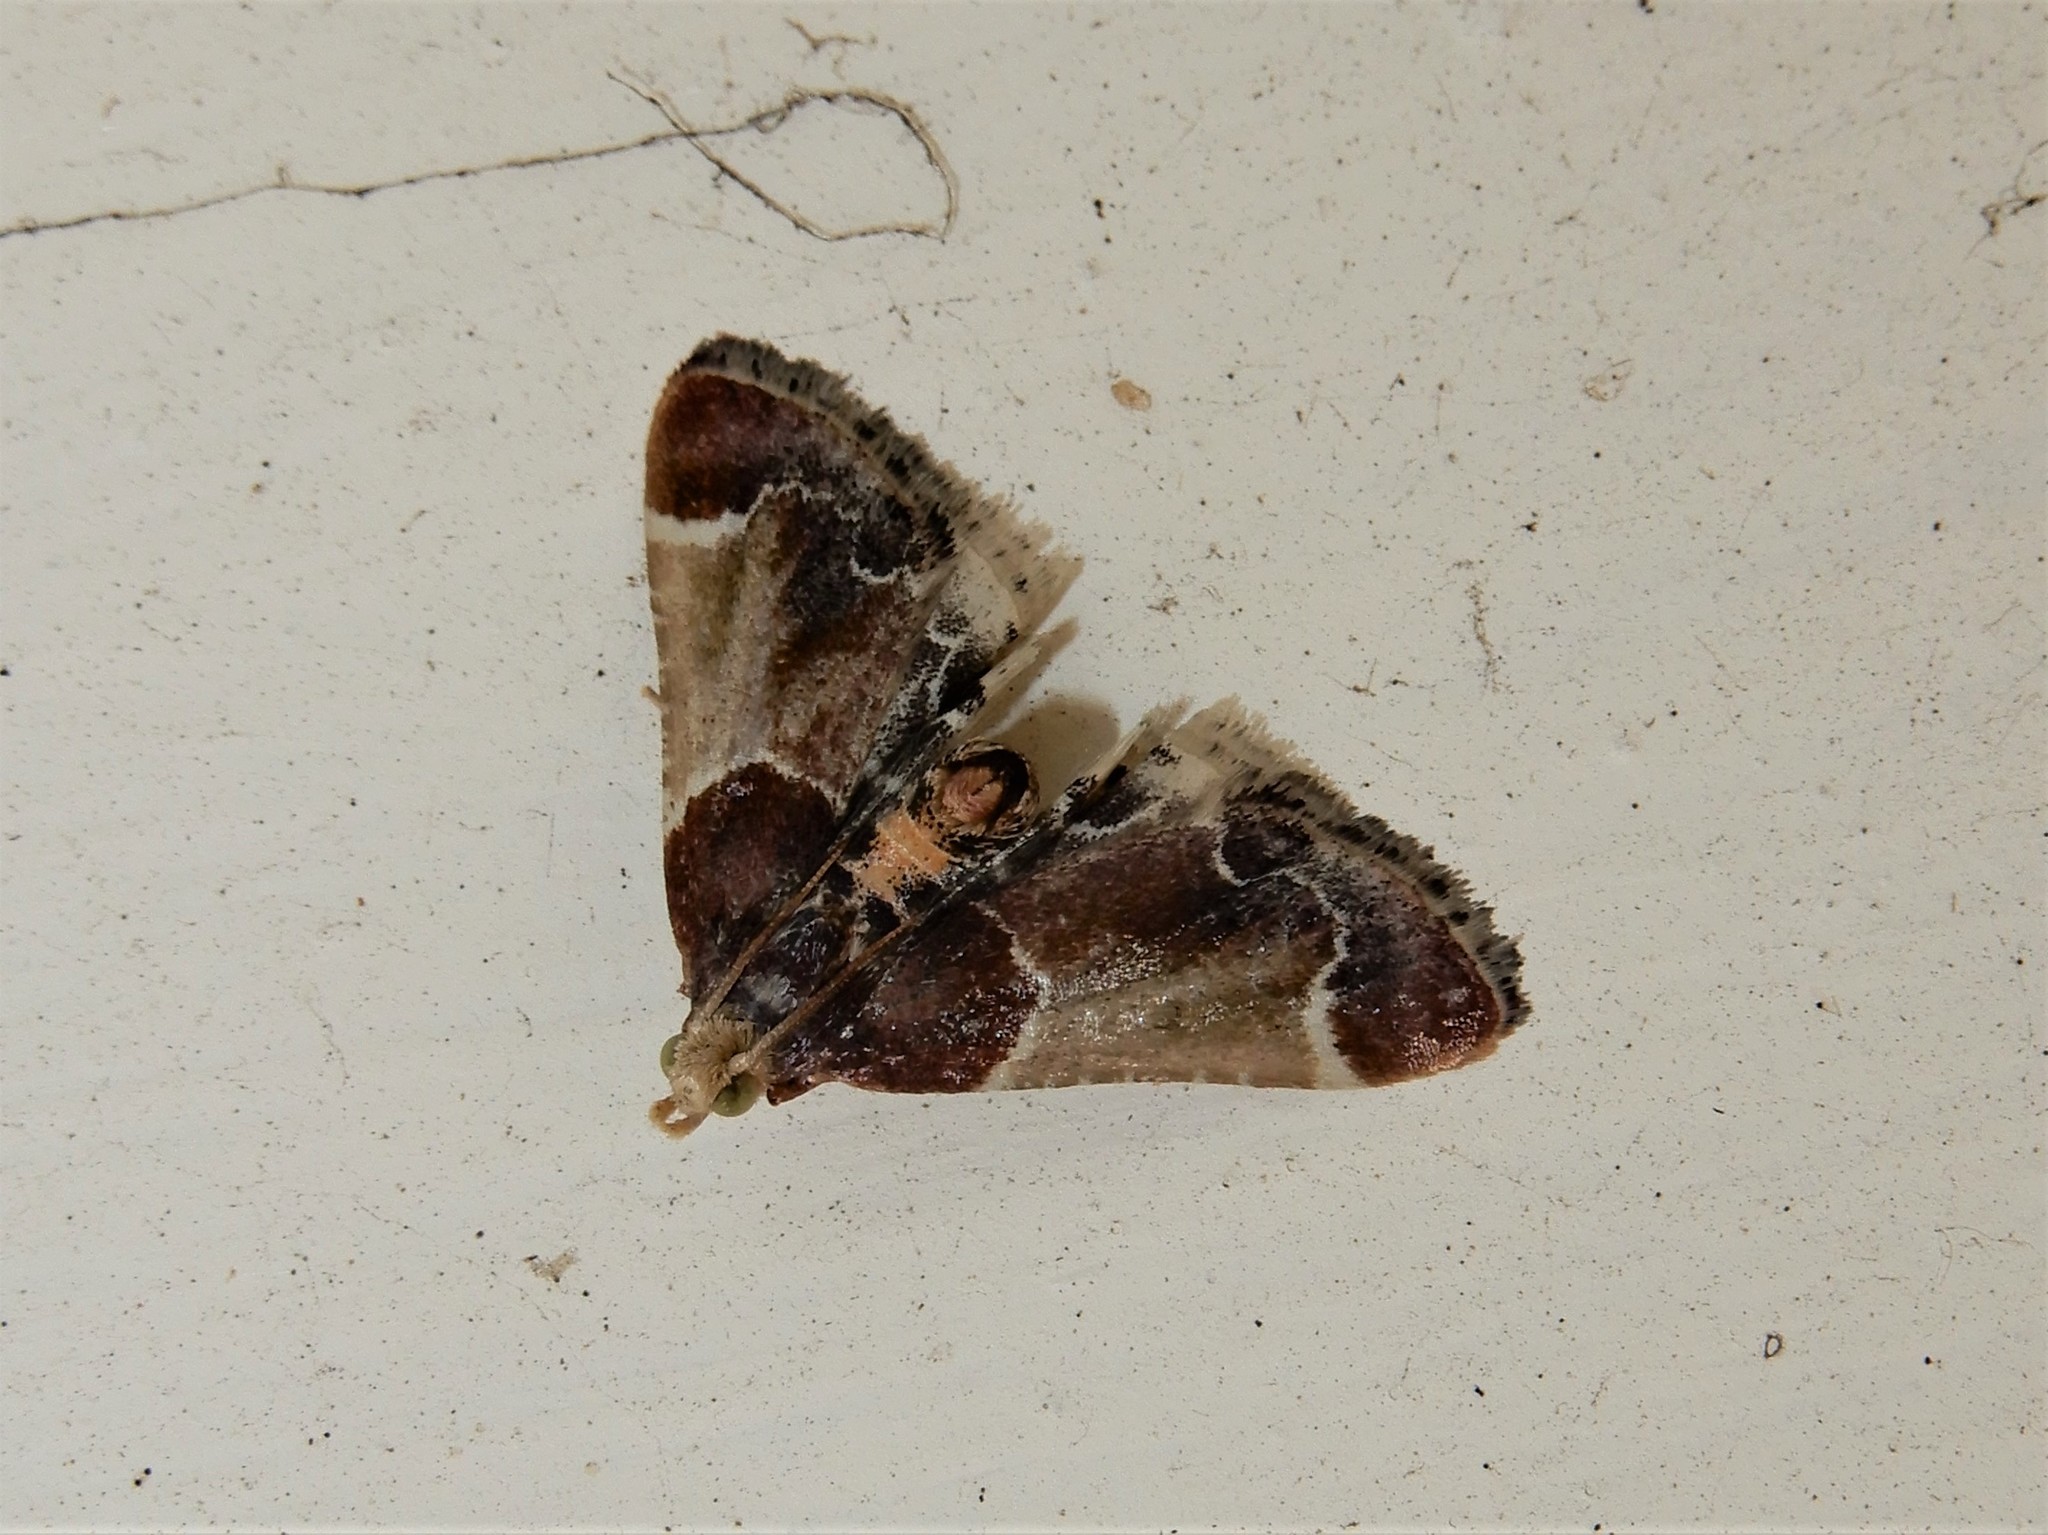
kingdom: Animalia
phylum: Arthropoda
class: Insecta
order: Lepidoptera
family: Pyralidae
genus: Pyralis
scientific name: Pyralis farinalis
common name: Meal moth
